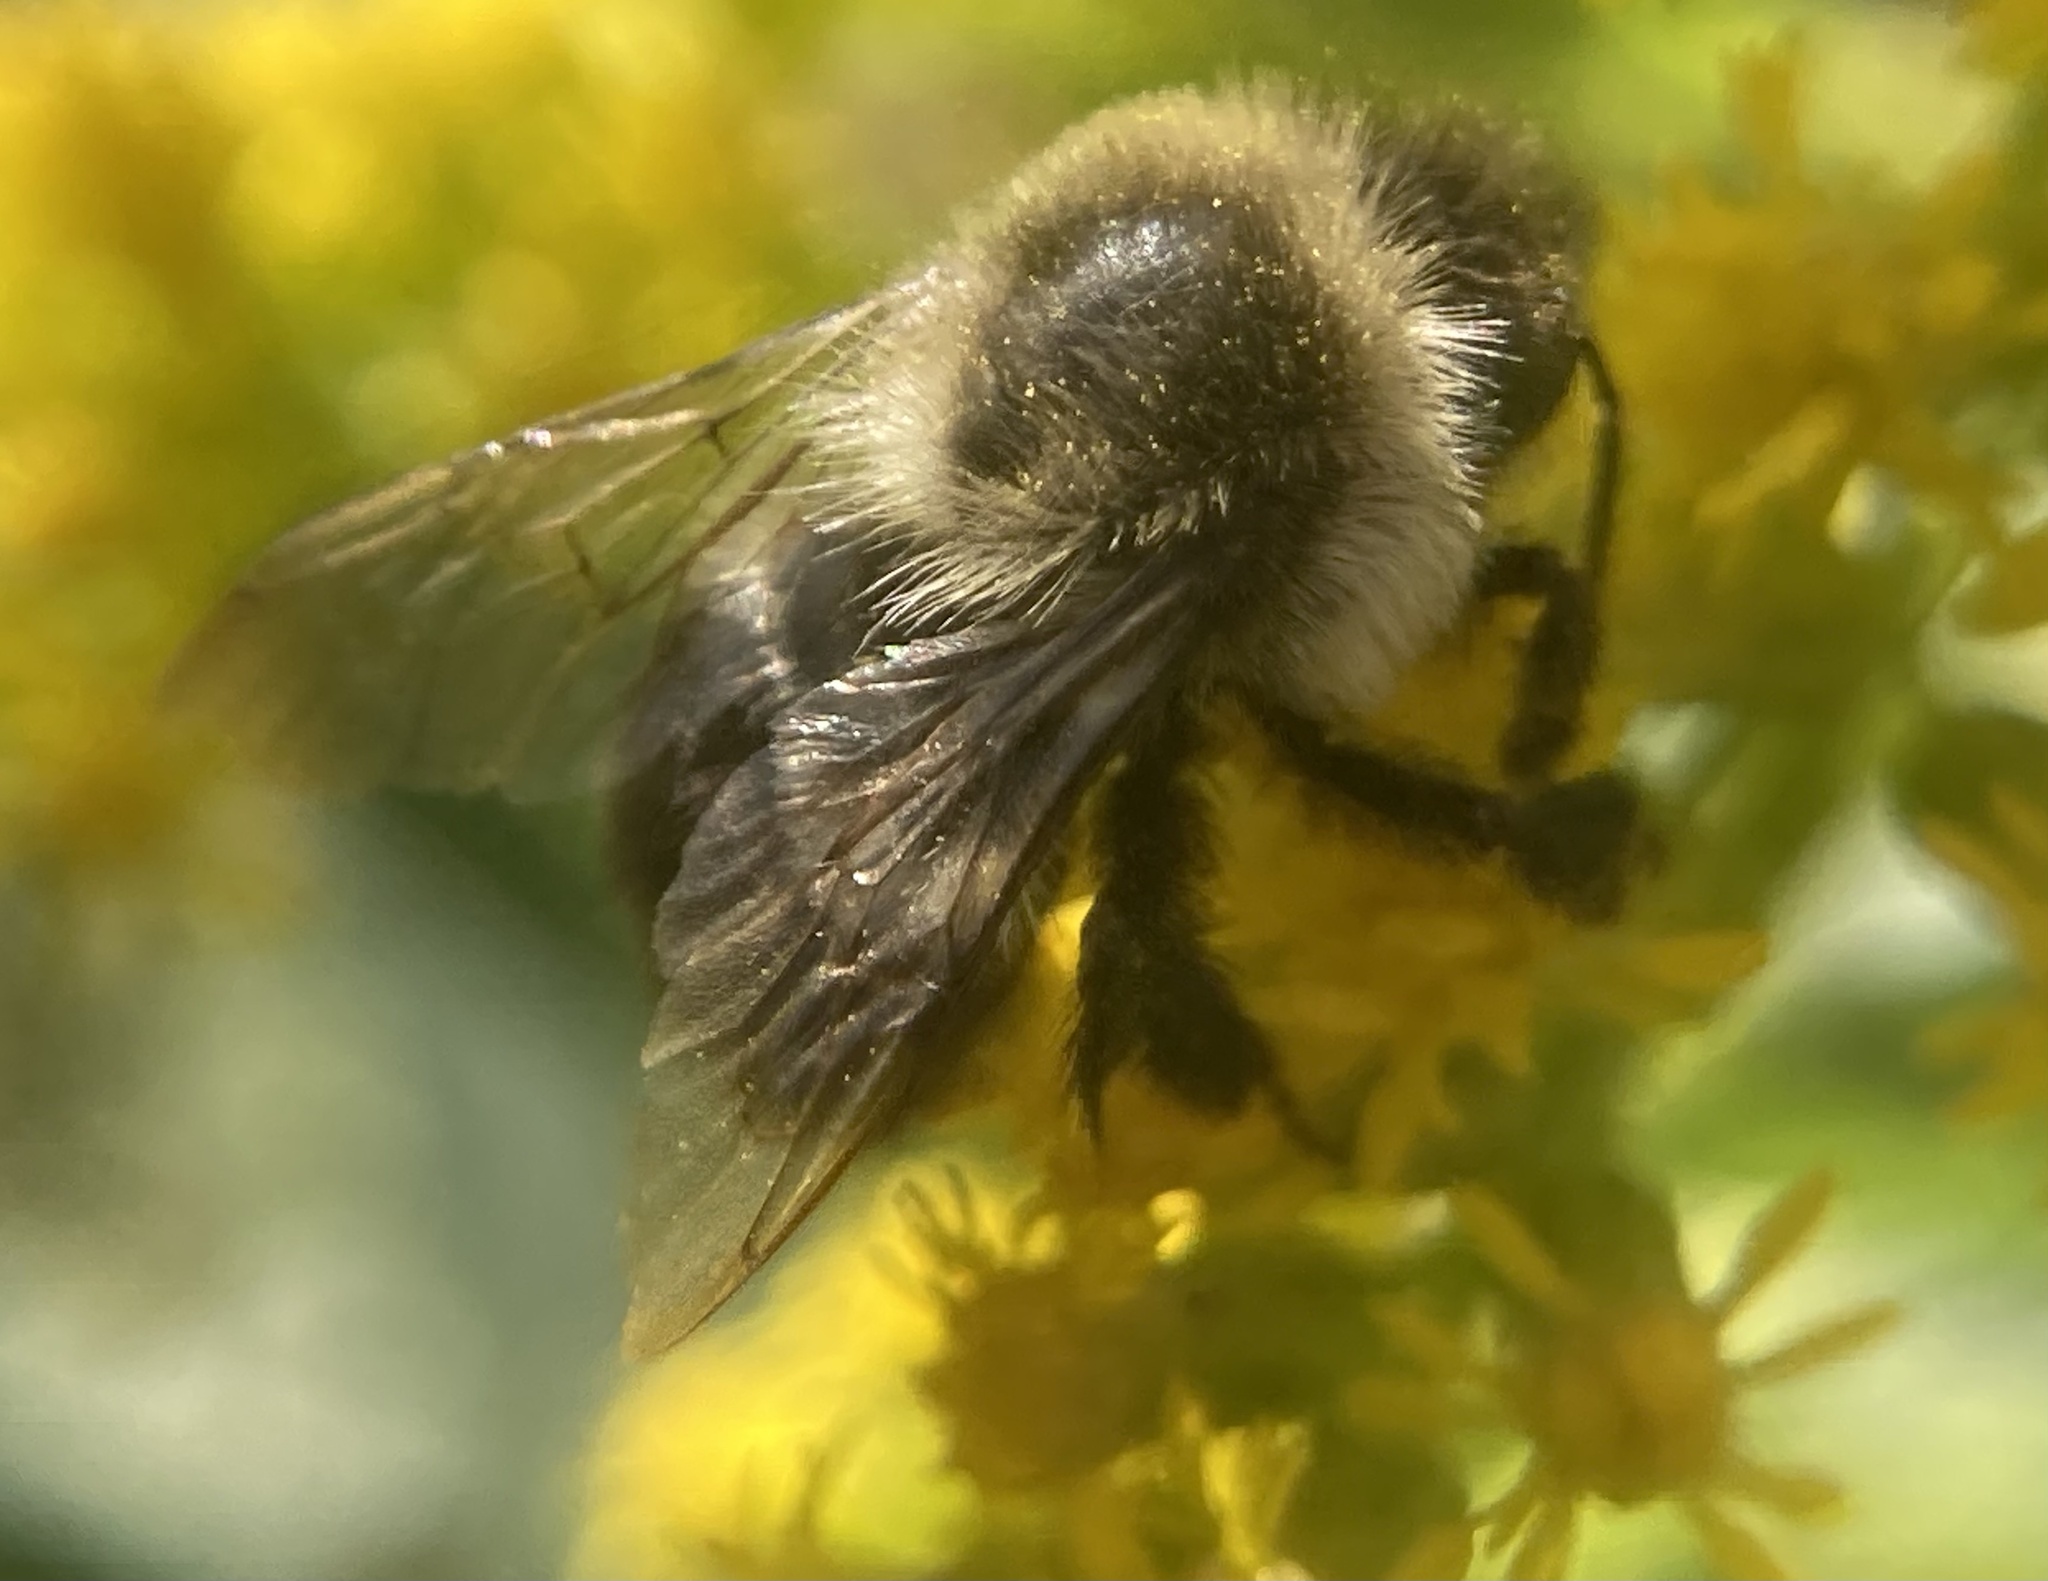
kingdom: Animalia
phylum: Arthropoda
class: Insecta
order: Hymenoptera
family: Apidae
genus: Bombus
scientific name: Bombus impatiens
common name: Common eastern bumble bee
